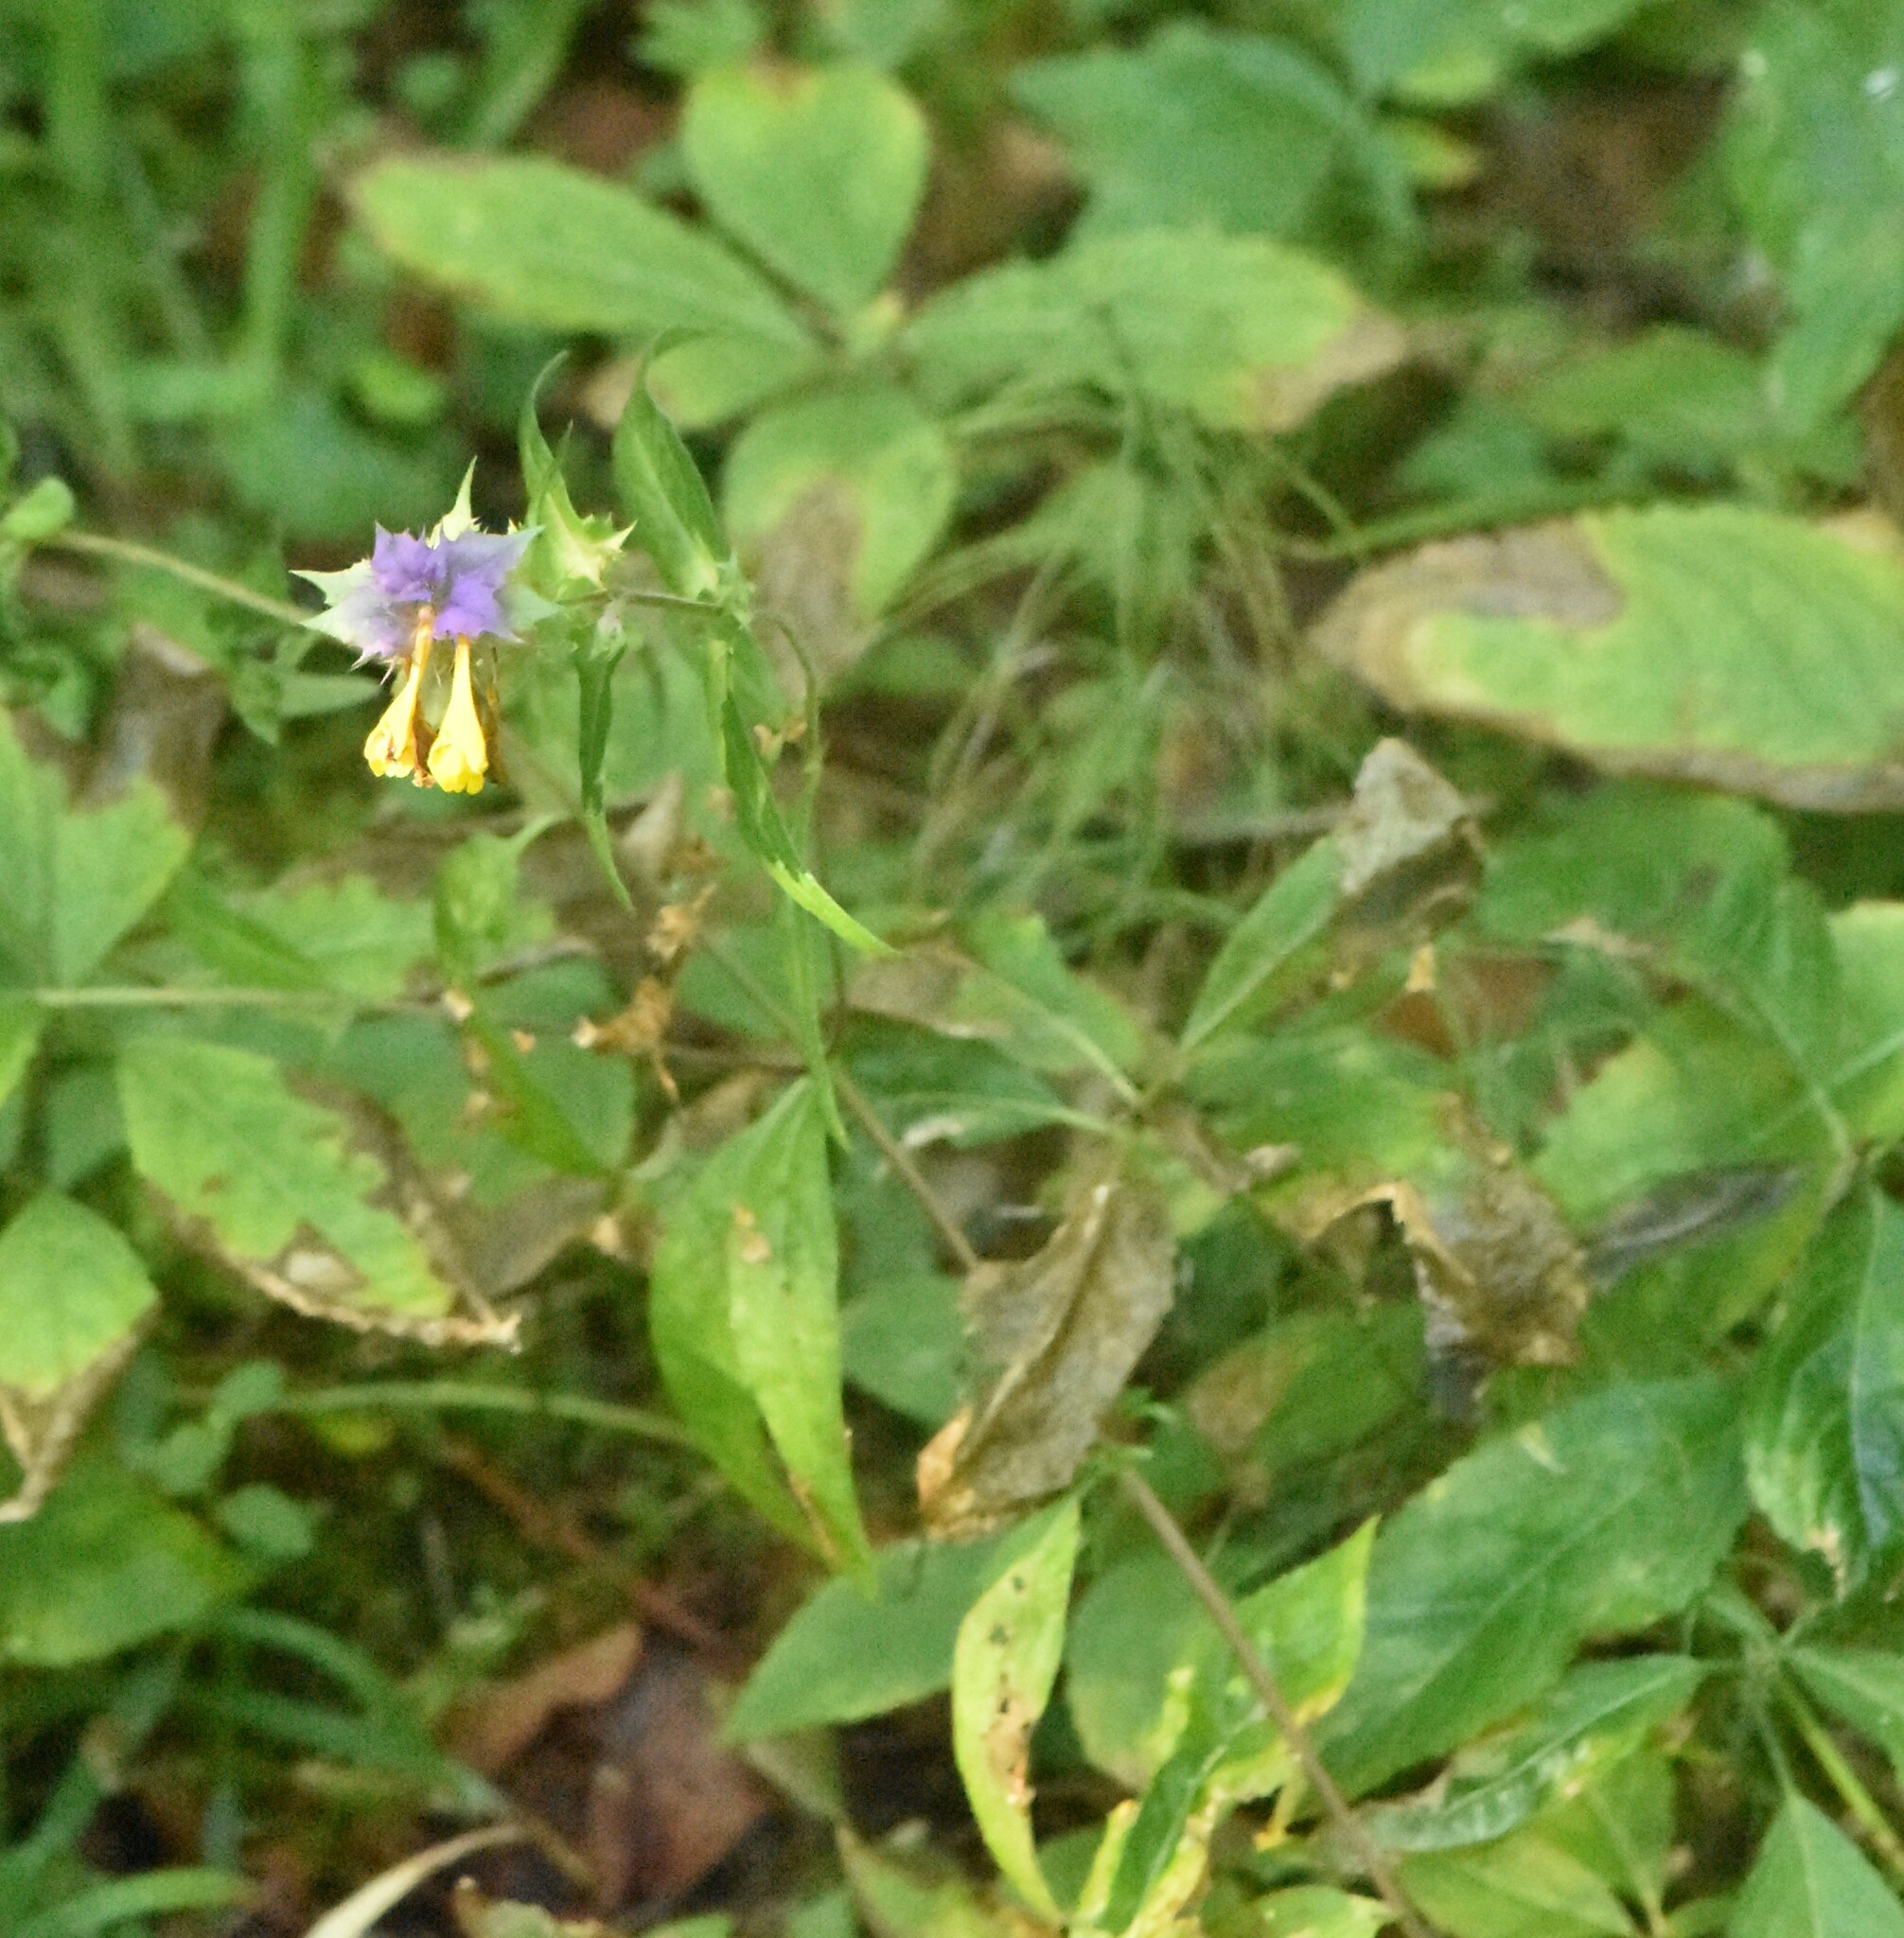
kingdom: Plantae
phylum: Tracheophyta
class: Magnoliopsida
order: Lamiales
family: Orobanchaceae
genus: Melampyrum
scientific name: Melampyrum nemorosum
